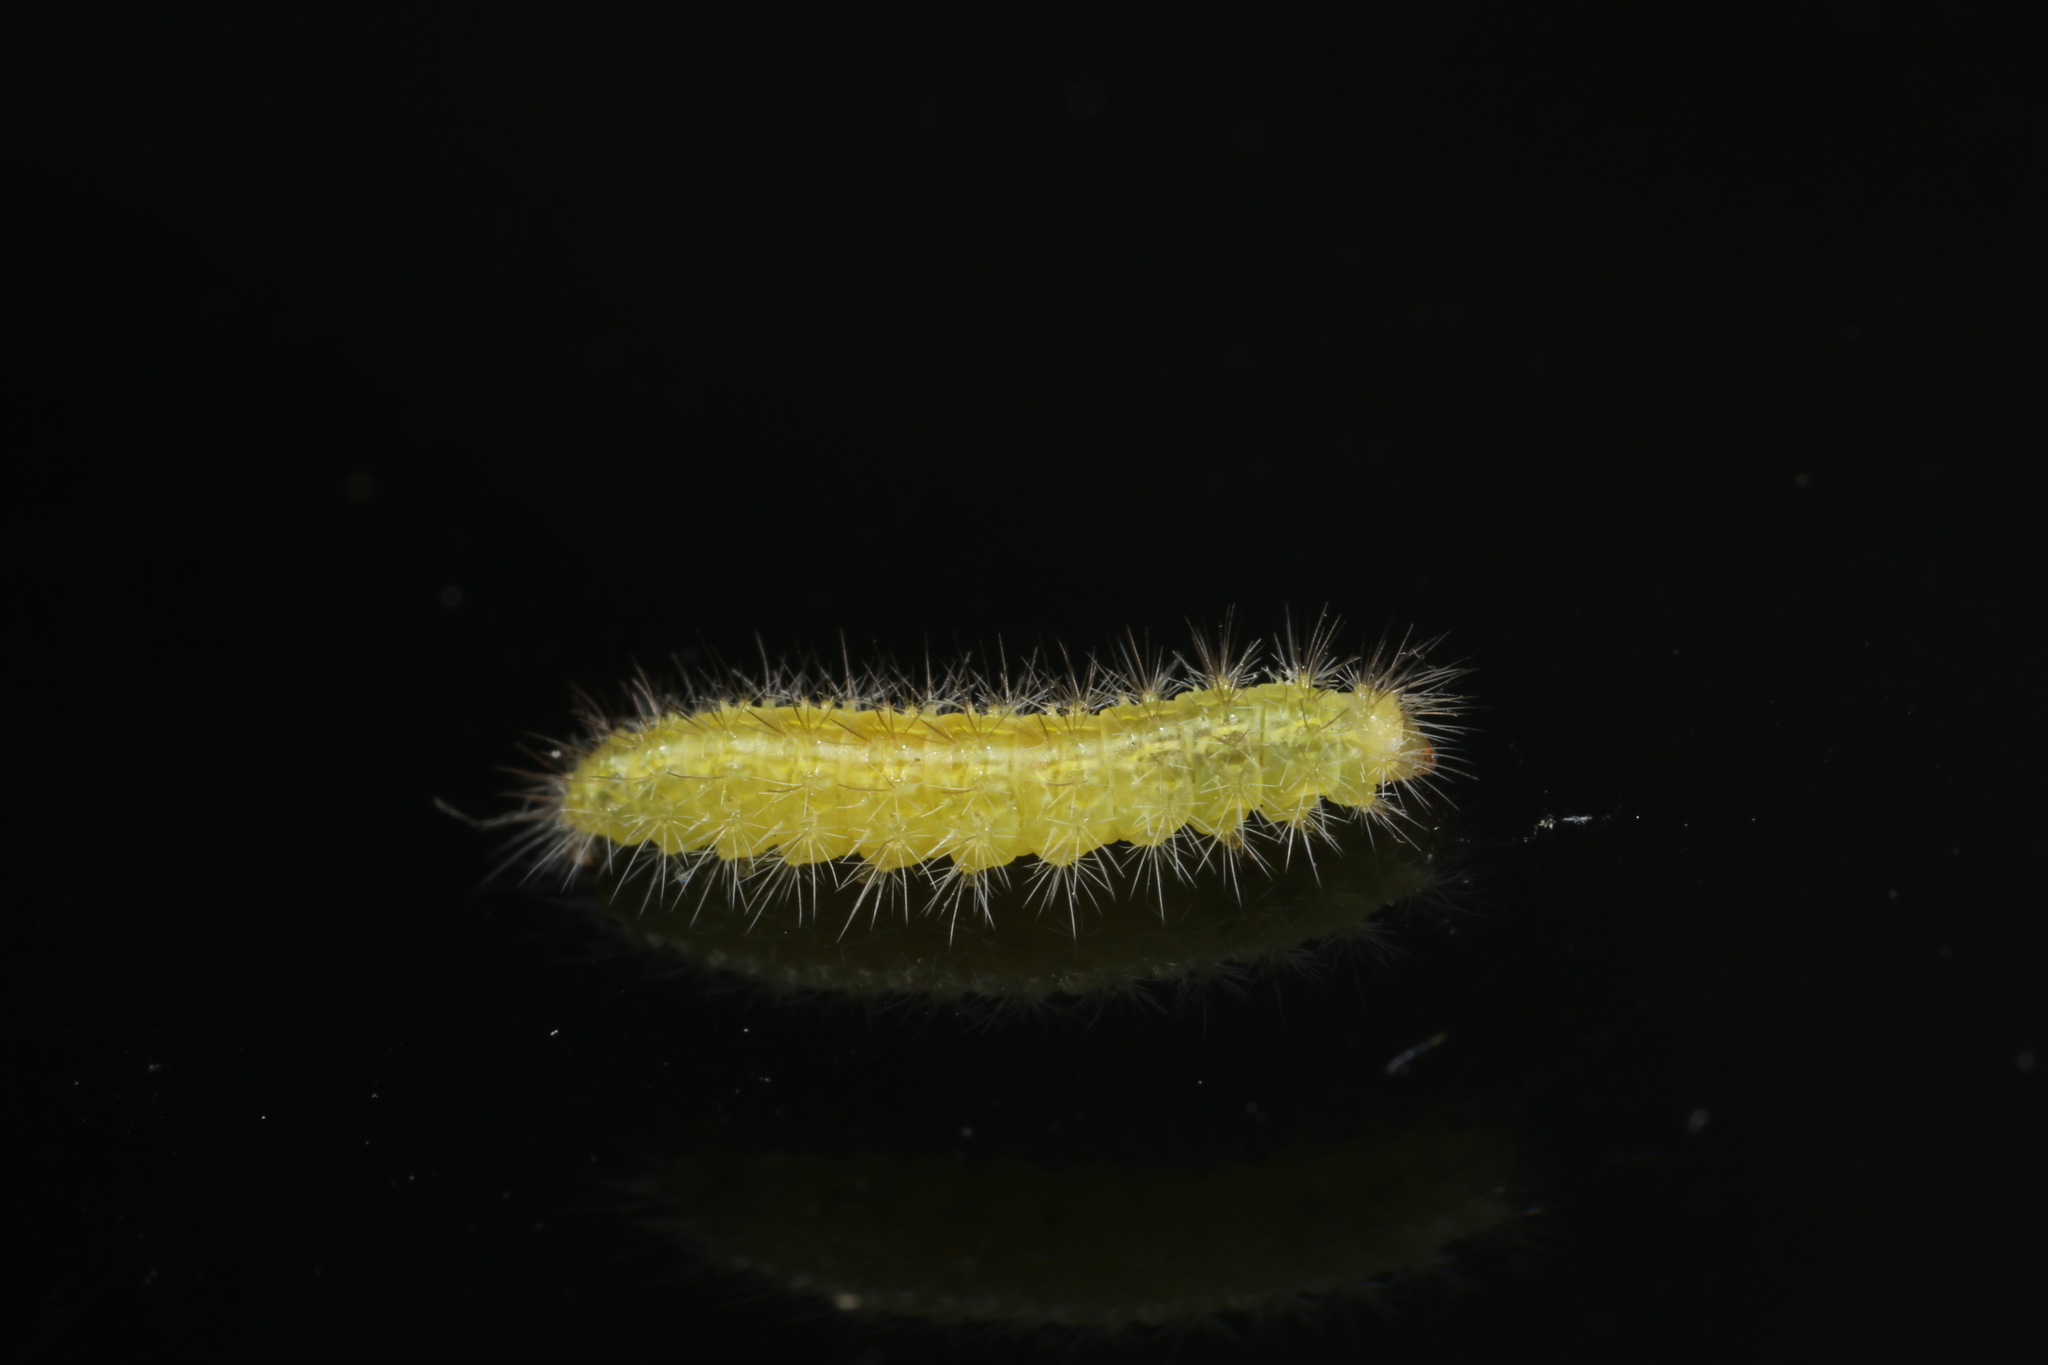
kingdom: Animalia
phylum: Arthropoda
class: Insecta
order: Lepidoptera
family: Pterophoridae
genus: Emmelina
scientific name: Emmelina monodactyla
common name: Common plume
